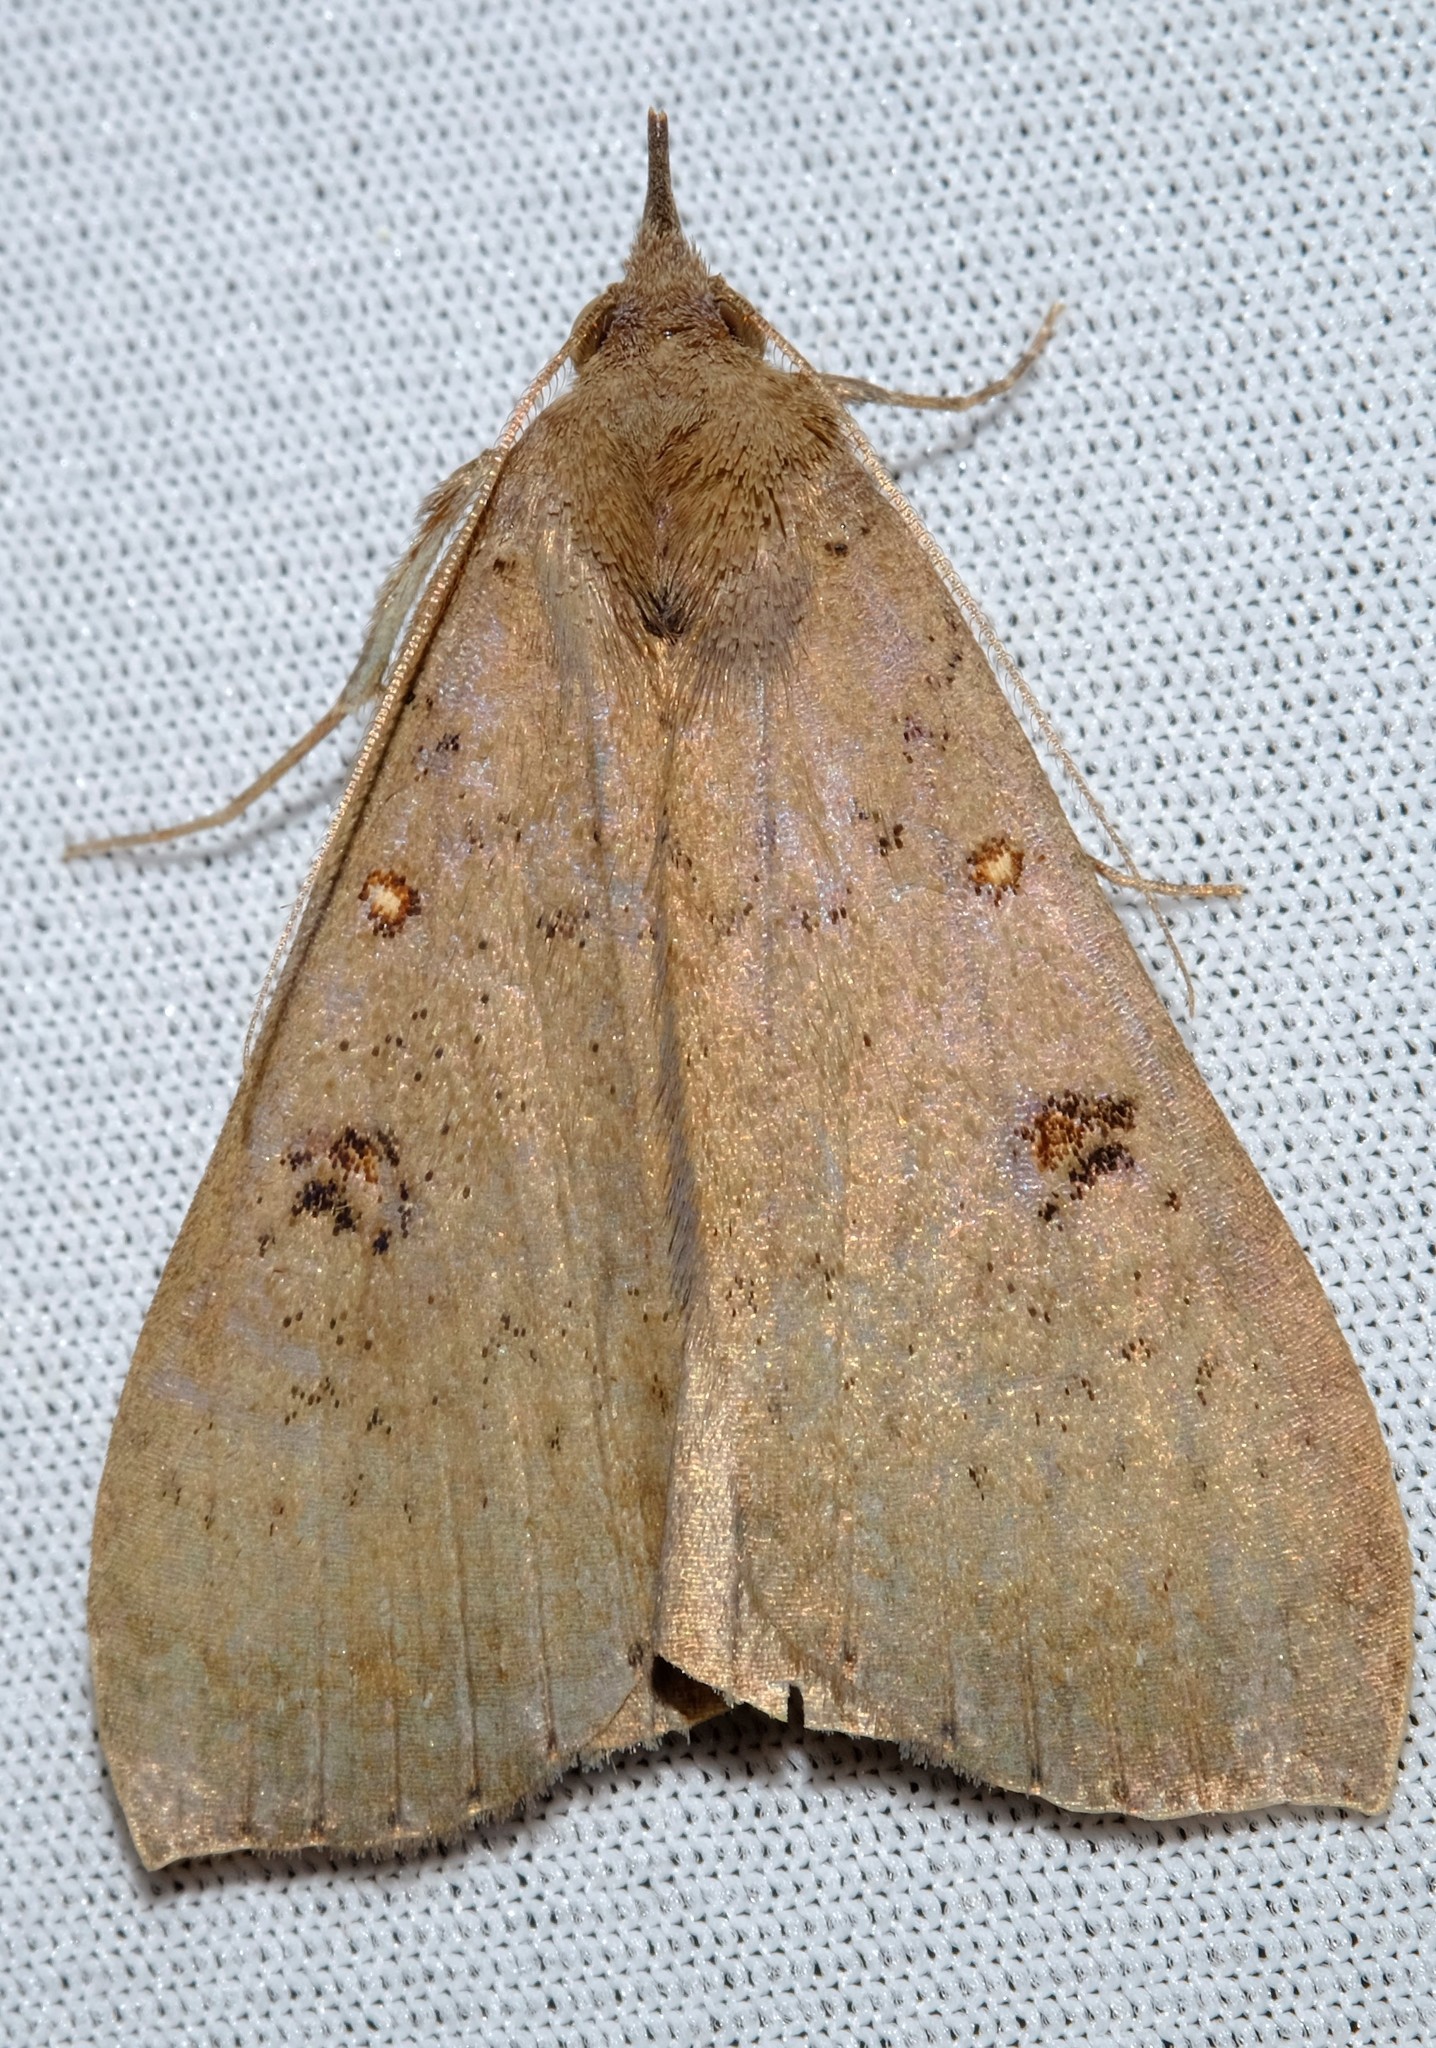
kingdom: Animalia
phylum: Arthropoda
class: Insecta
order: Lepidoptera
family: Erebidae
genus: Rhapsa
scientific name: Rhapsa suscitatalis
